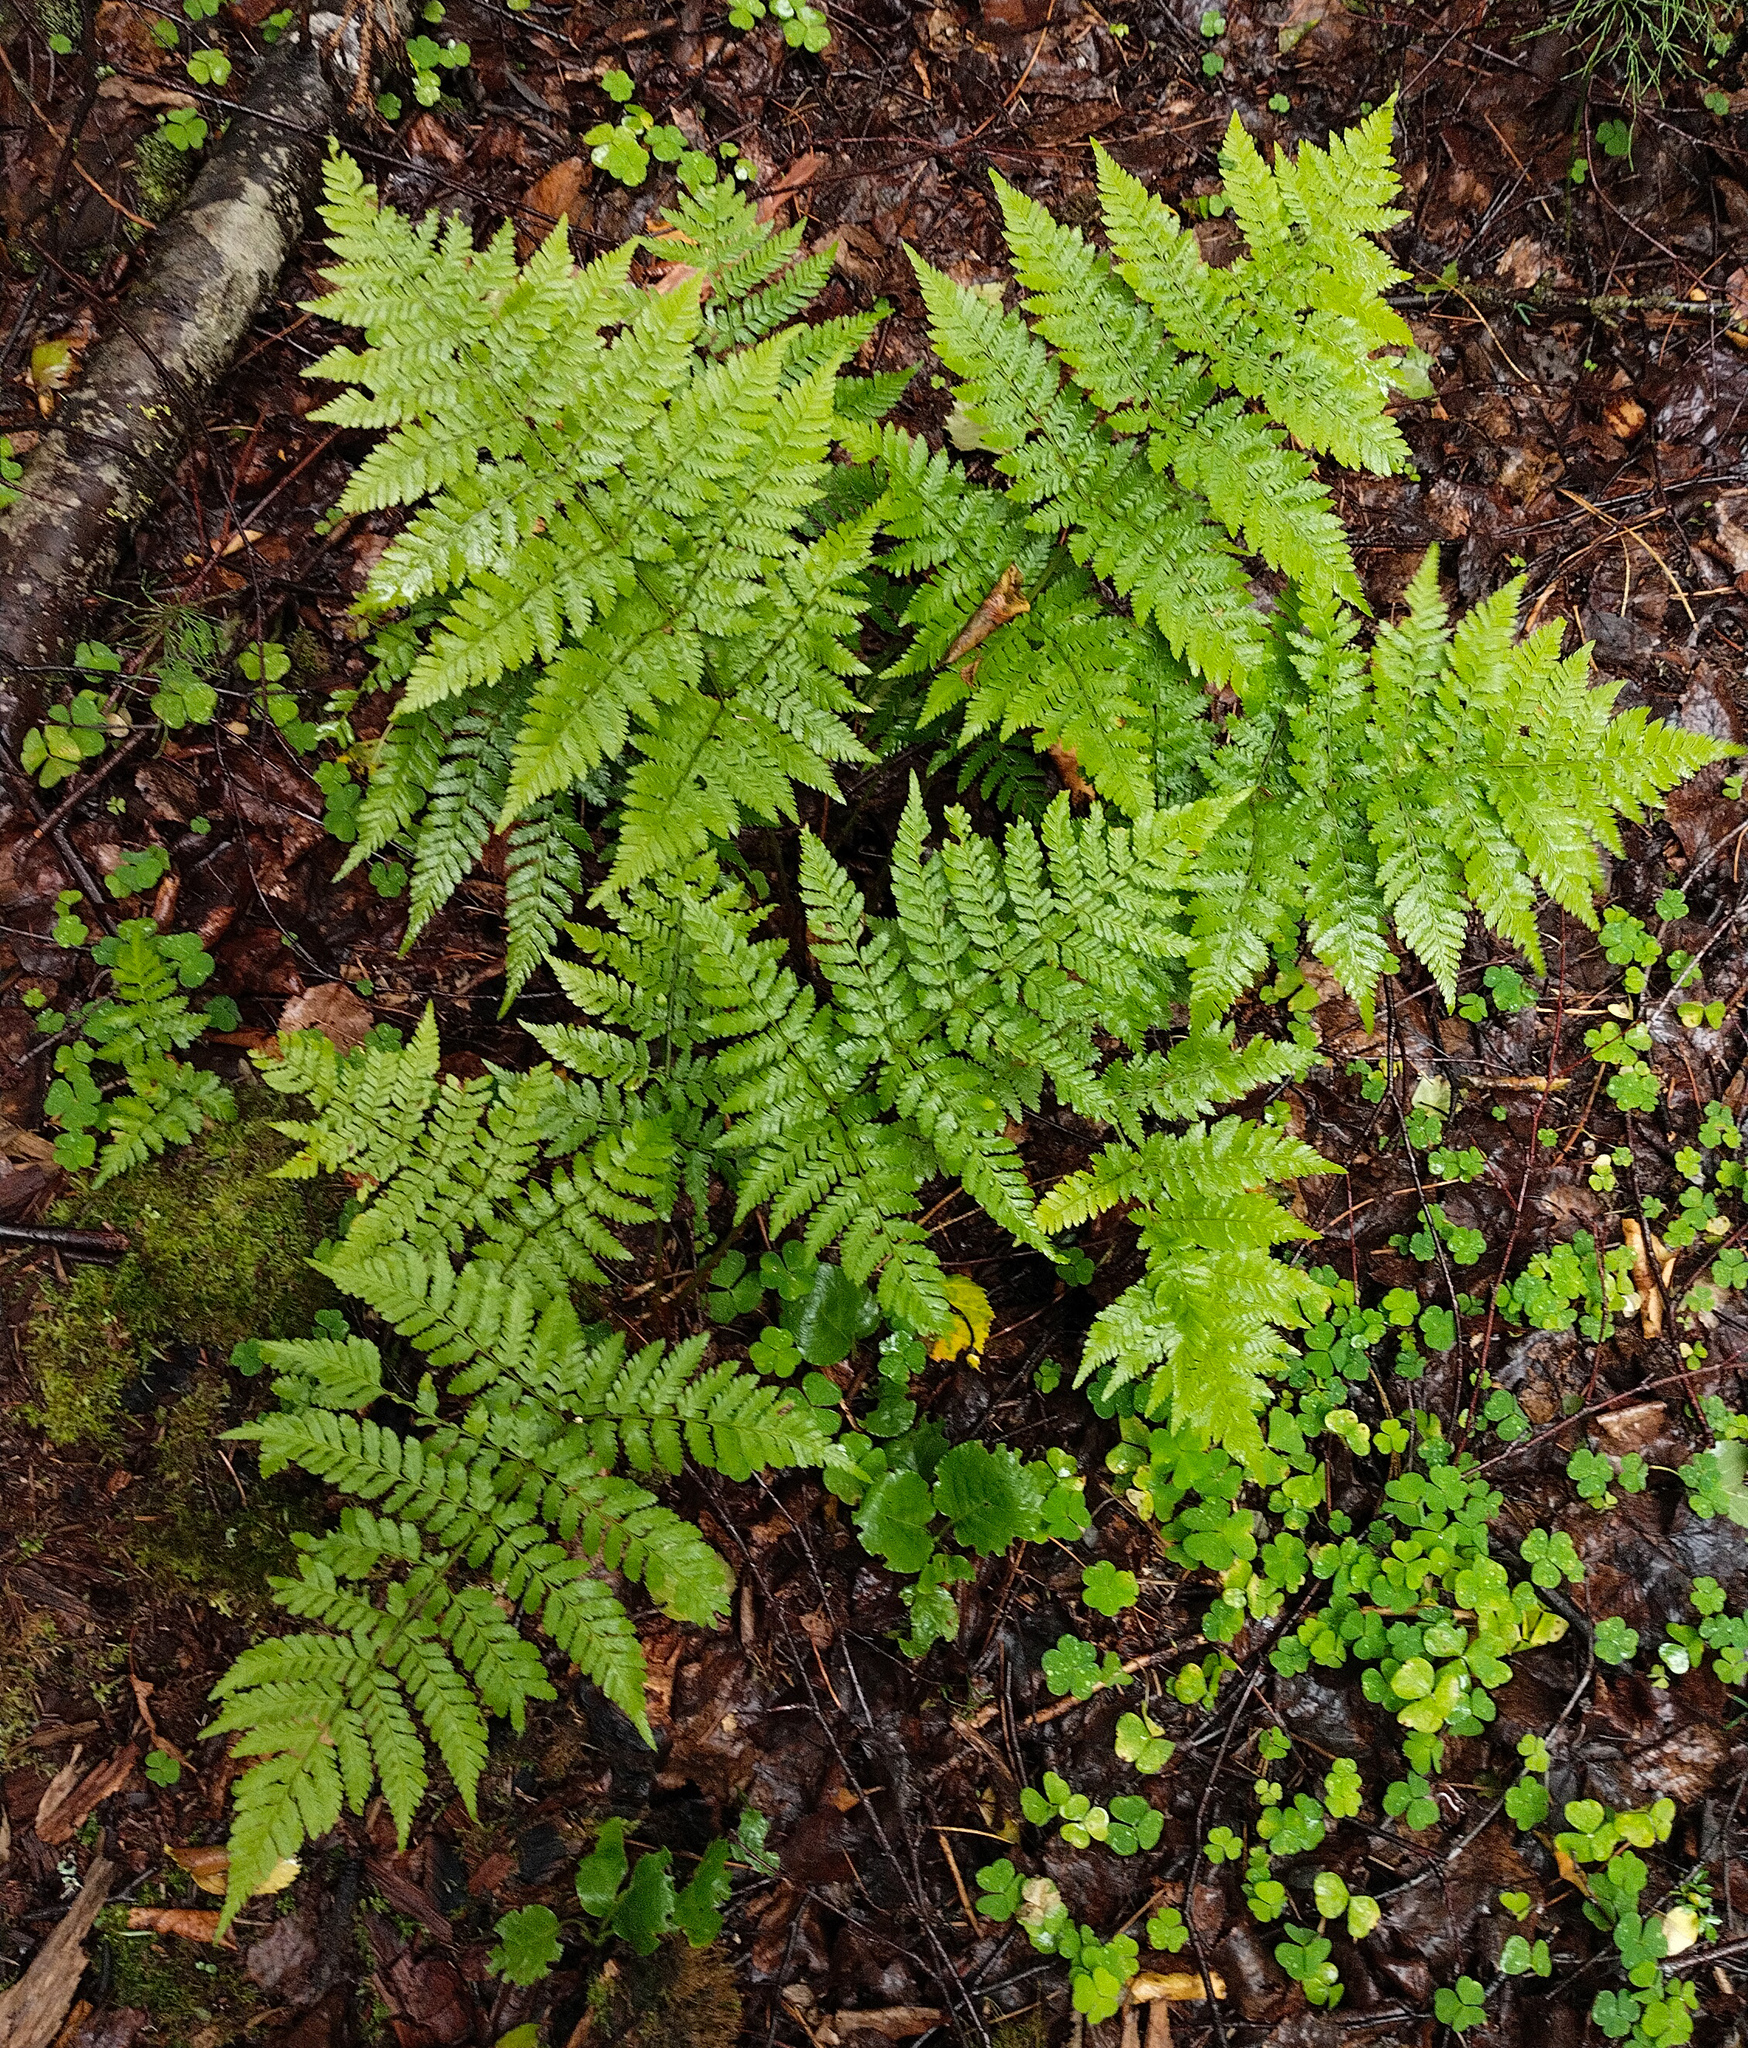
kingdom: Plantae
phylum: Tracheophyta
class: Polypodiopsida
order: Polypodiales
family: Dryopteridaceae
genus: Dryopteris
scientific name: Dryopteris expansa
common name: Northern buckler fern
